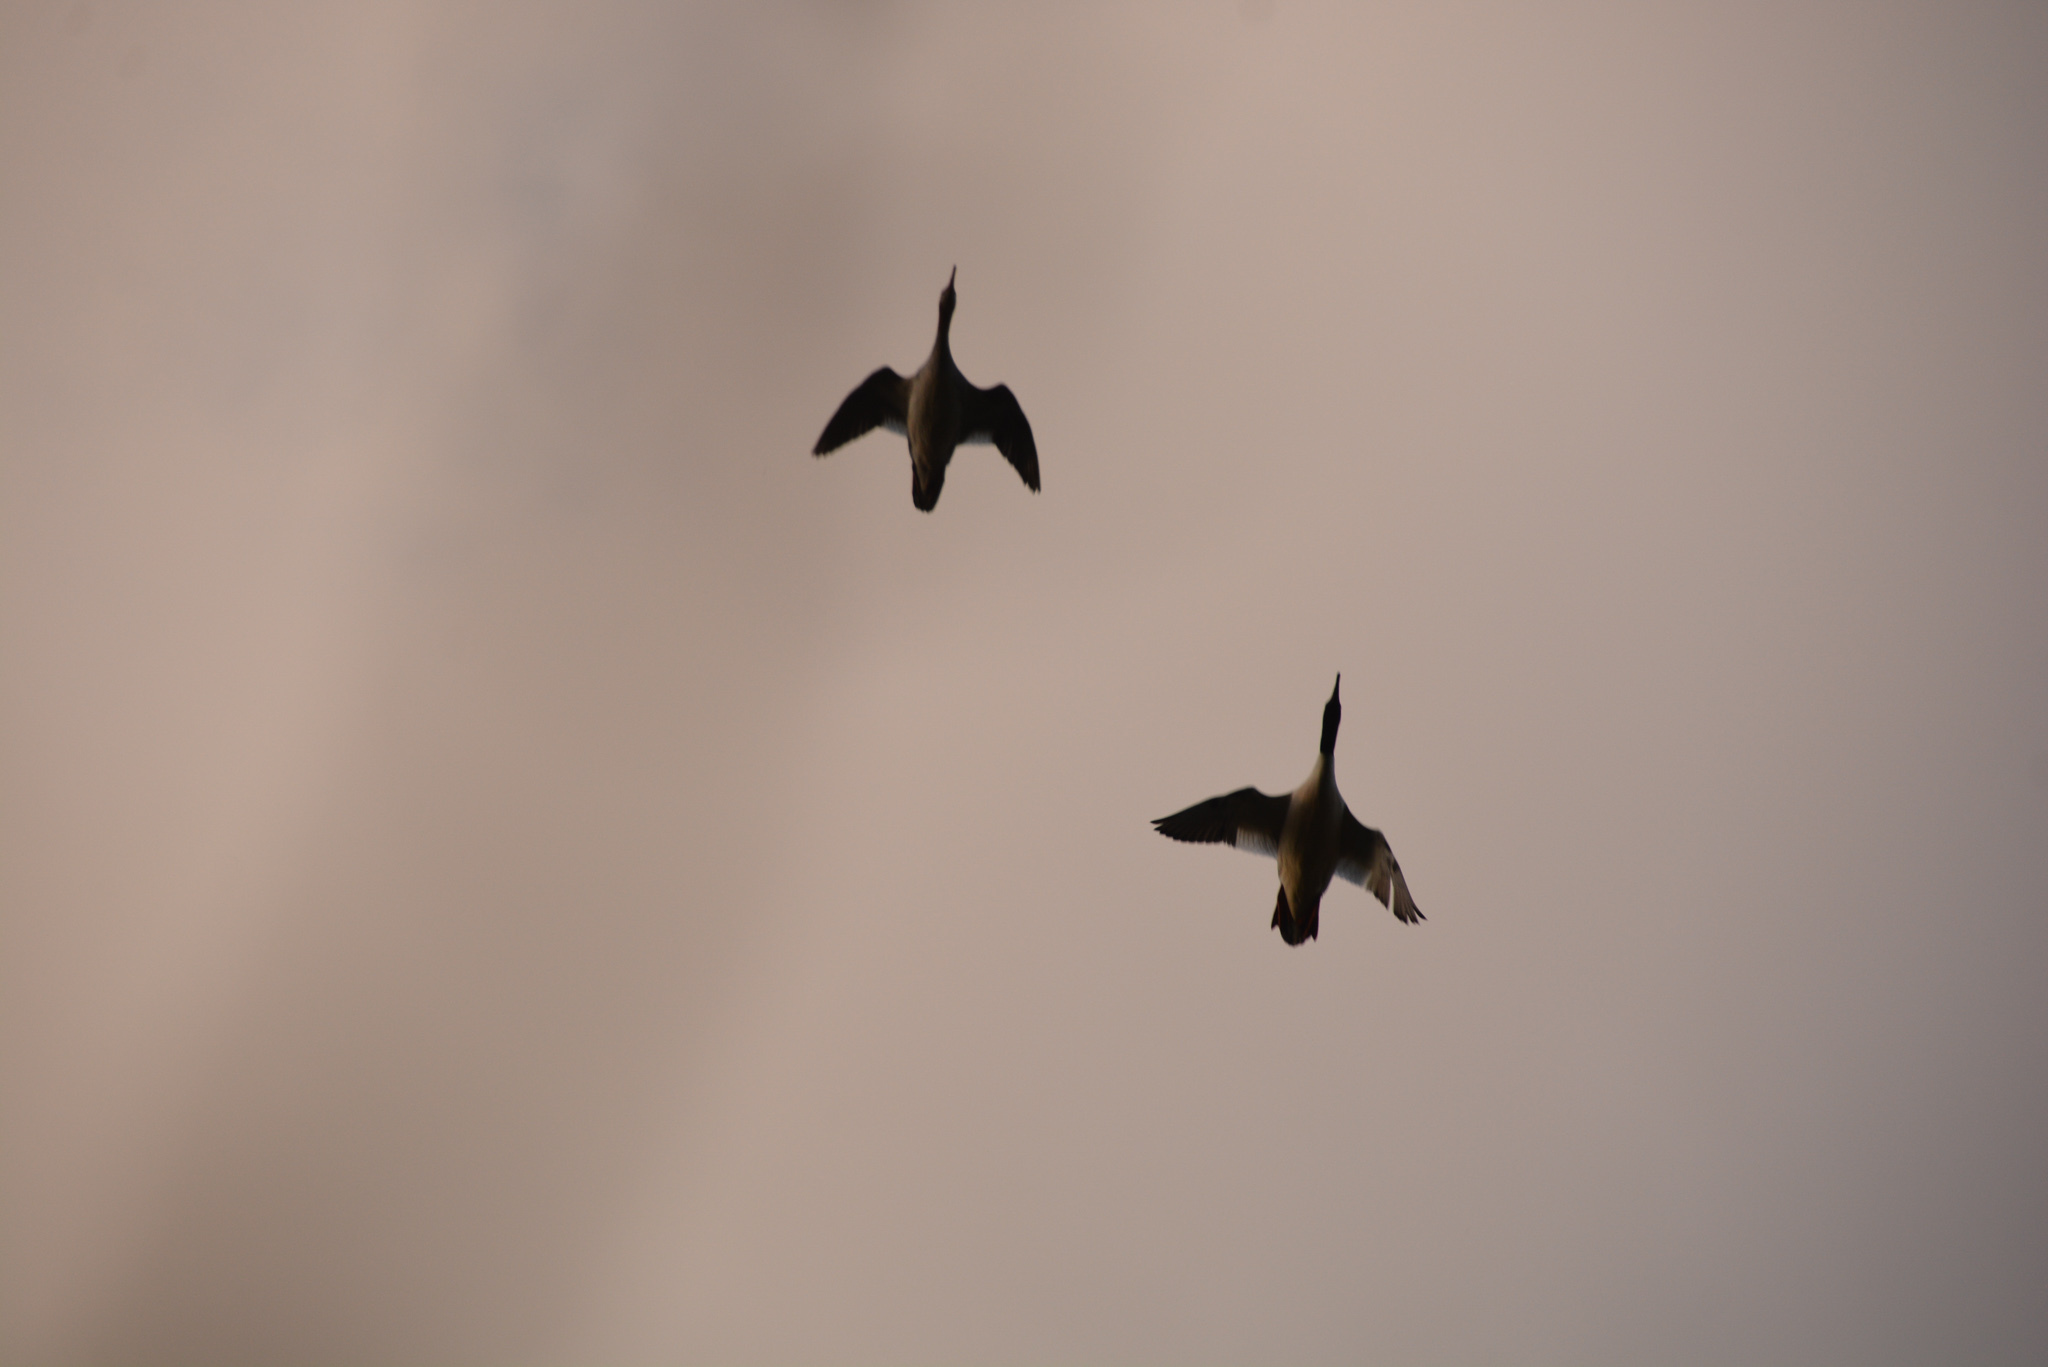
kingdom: Animalia
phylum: Chordata
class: Aves
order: Anseriformes
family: Anatidae
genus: Mergus
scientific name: Mergus merganser
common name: Common merganser
